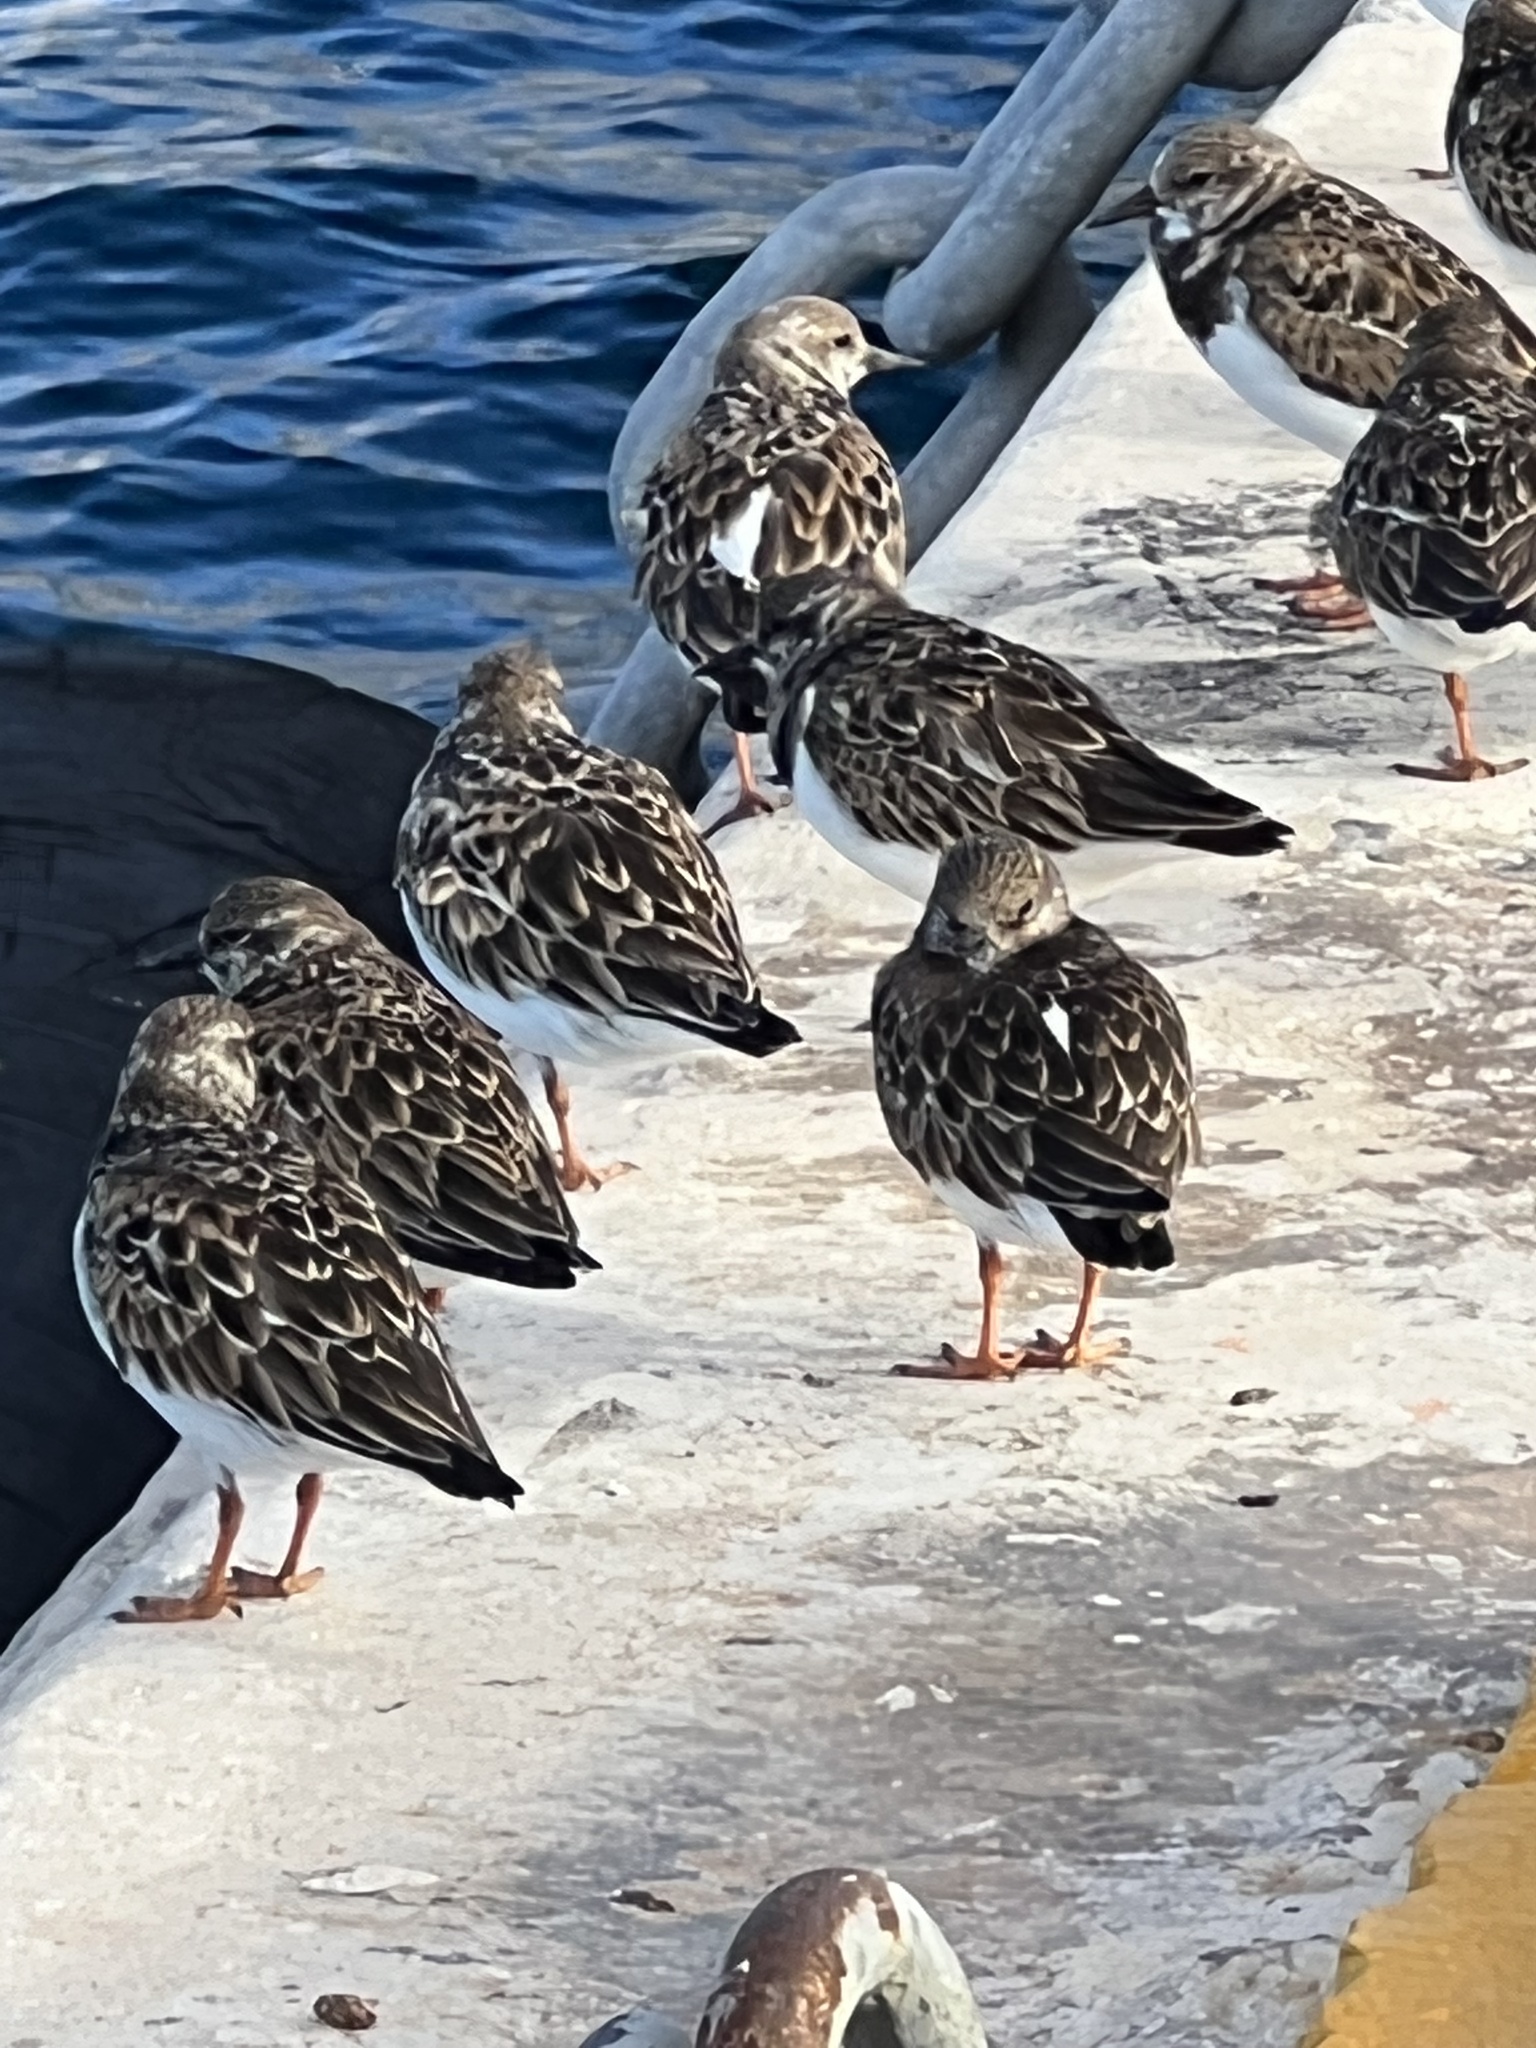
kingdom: Animalia
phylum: Chordata
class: Aves
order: Charadriiformes
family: Scolopacidae
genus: Arenaria
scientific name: Arenaria interpres
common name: Ruddy turnstone
